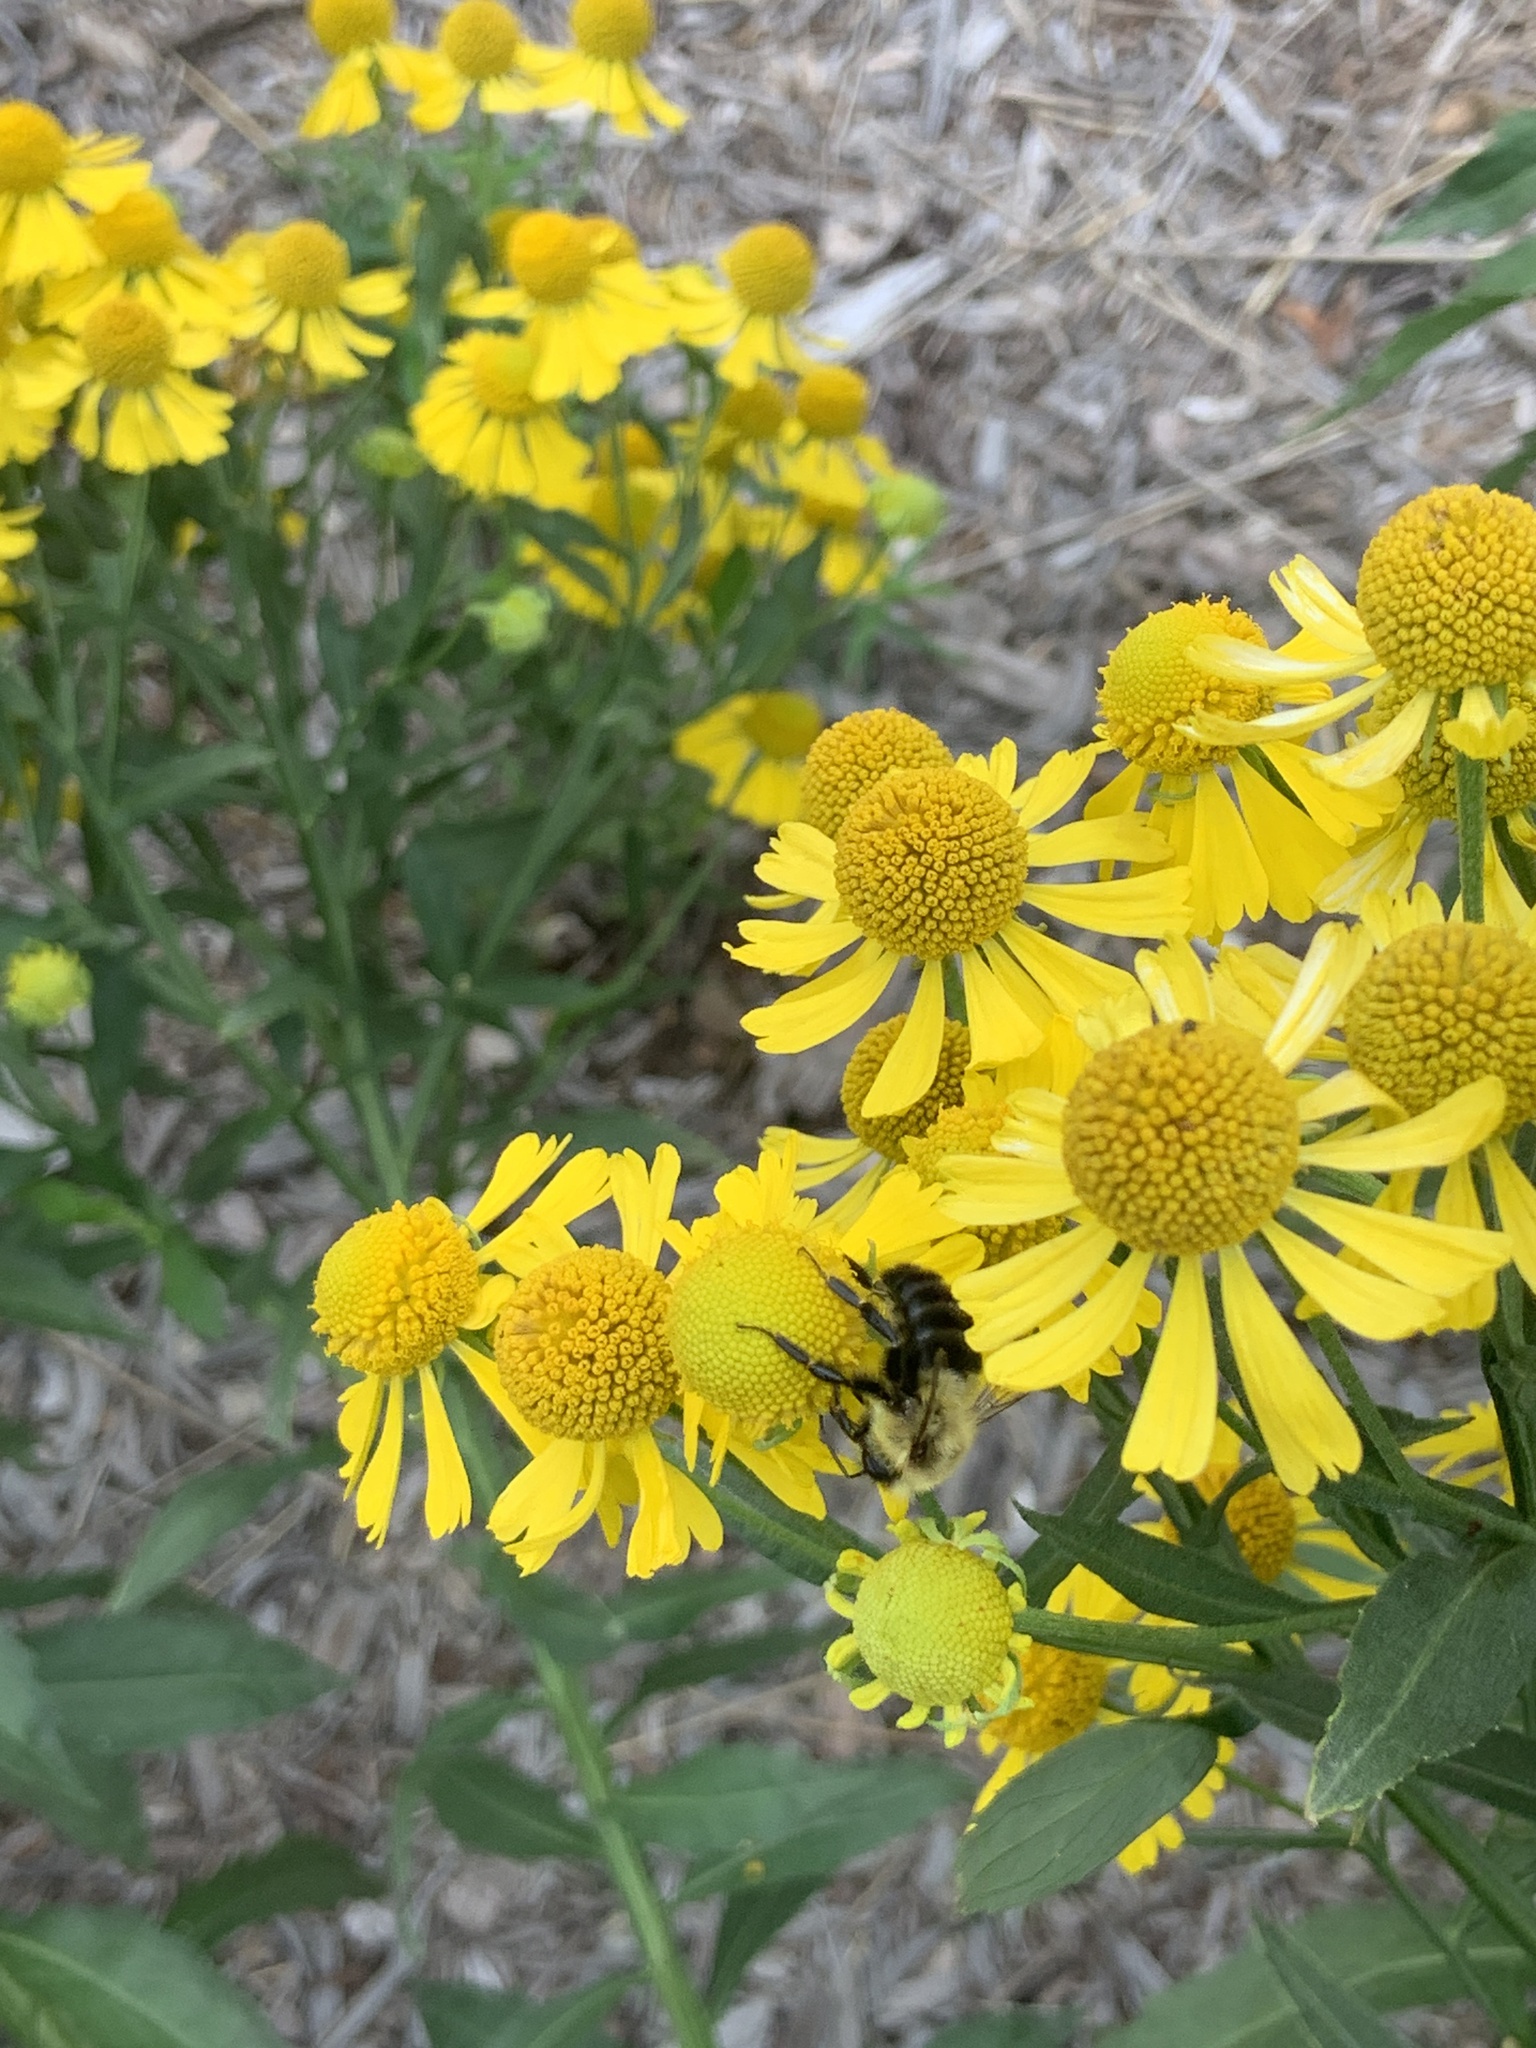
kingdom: Animalia
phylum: Arthropoda
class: Insecta
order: Hymenoptera
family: Apidae
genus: Bombus
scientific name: Bombus impatiens
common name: Common eastern bumble bee
